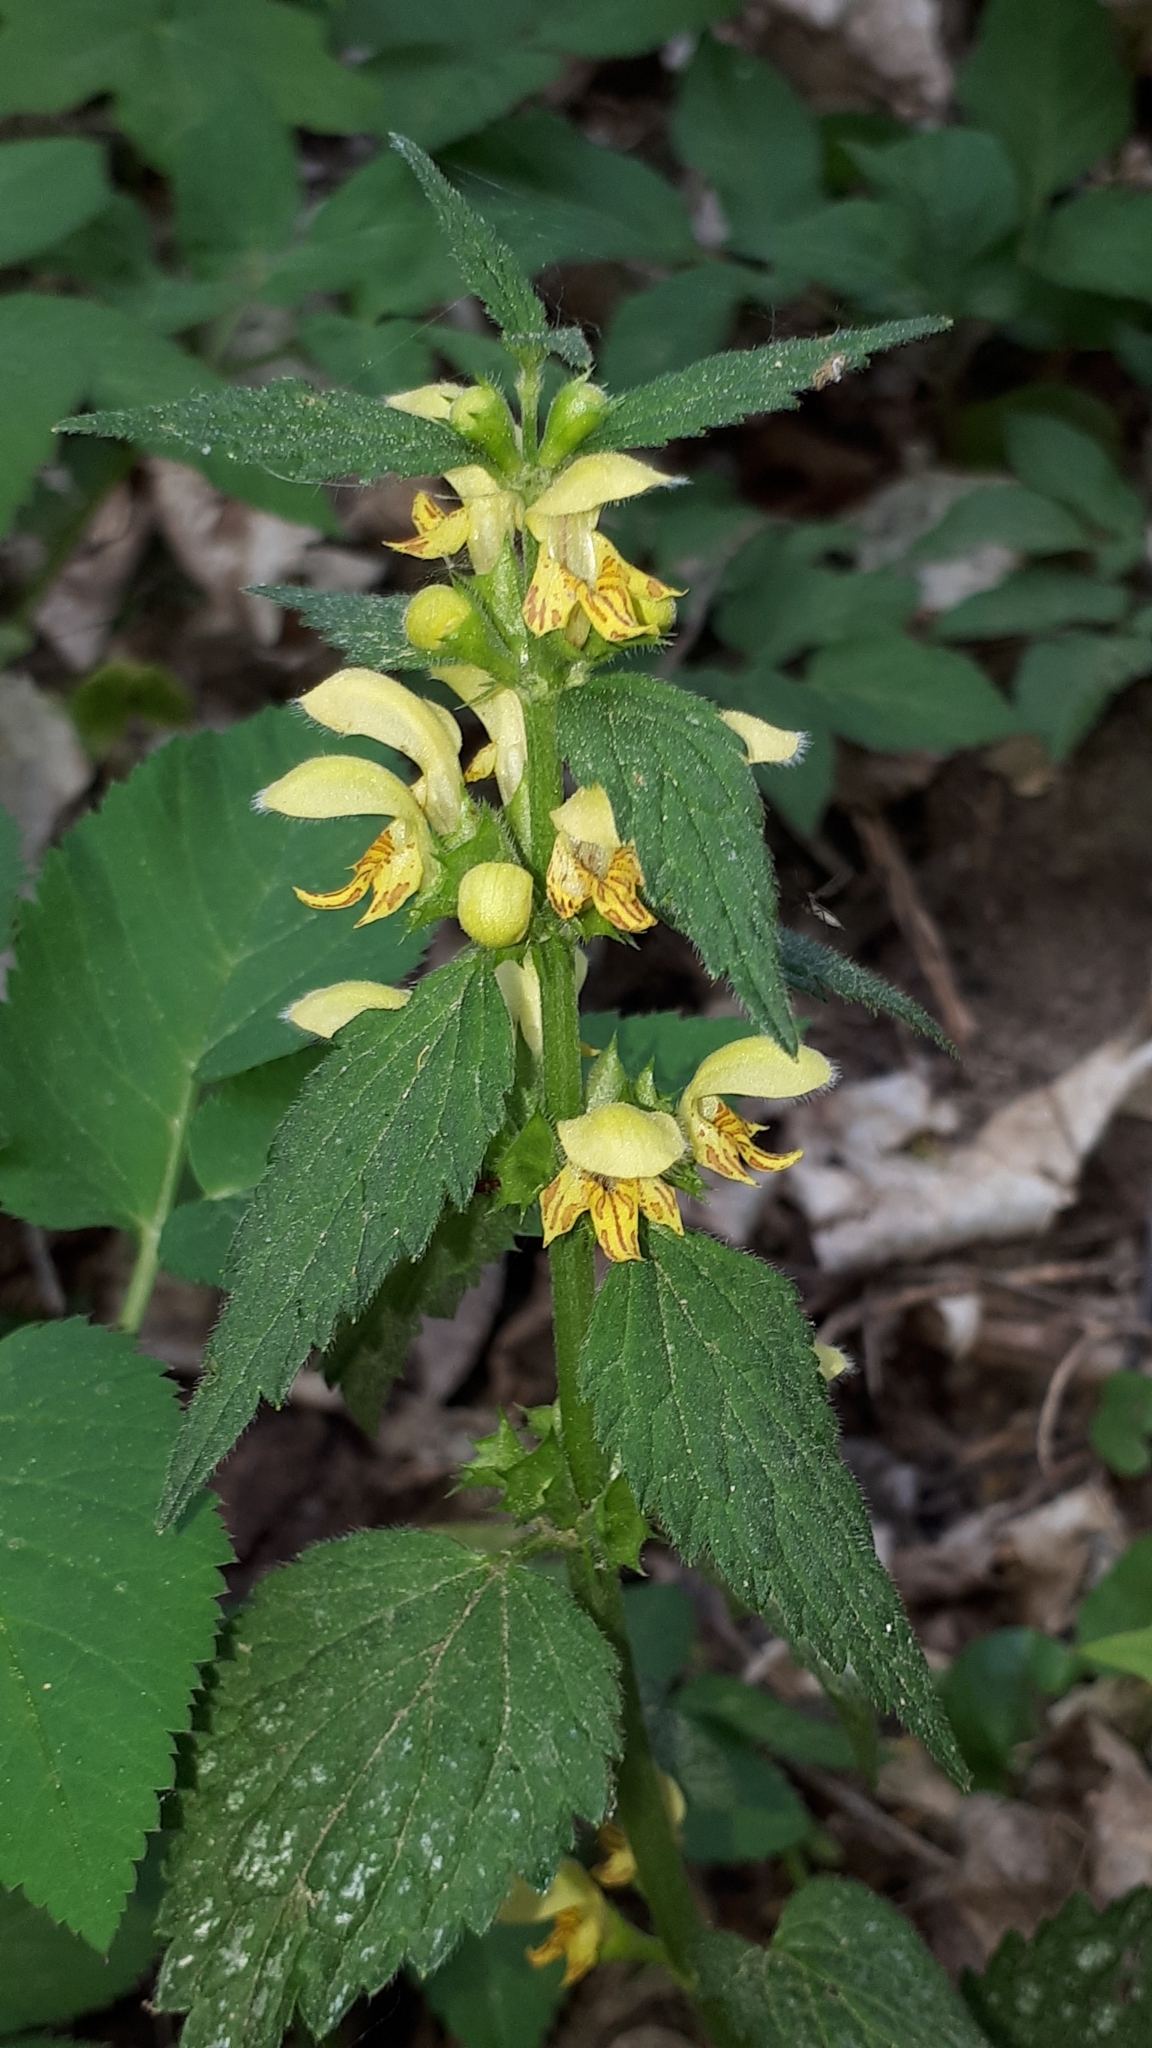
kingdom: Plantae
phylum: Tracheophyta
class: Magnoliopsida
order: Lamiales
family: Lamiaceae
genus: Lamium
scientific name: Lamium galeobdolon
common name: Yellow archangel
